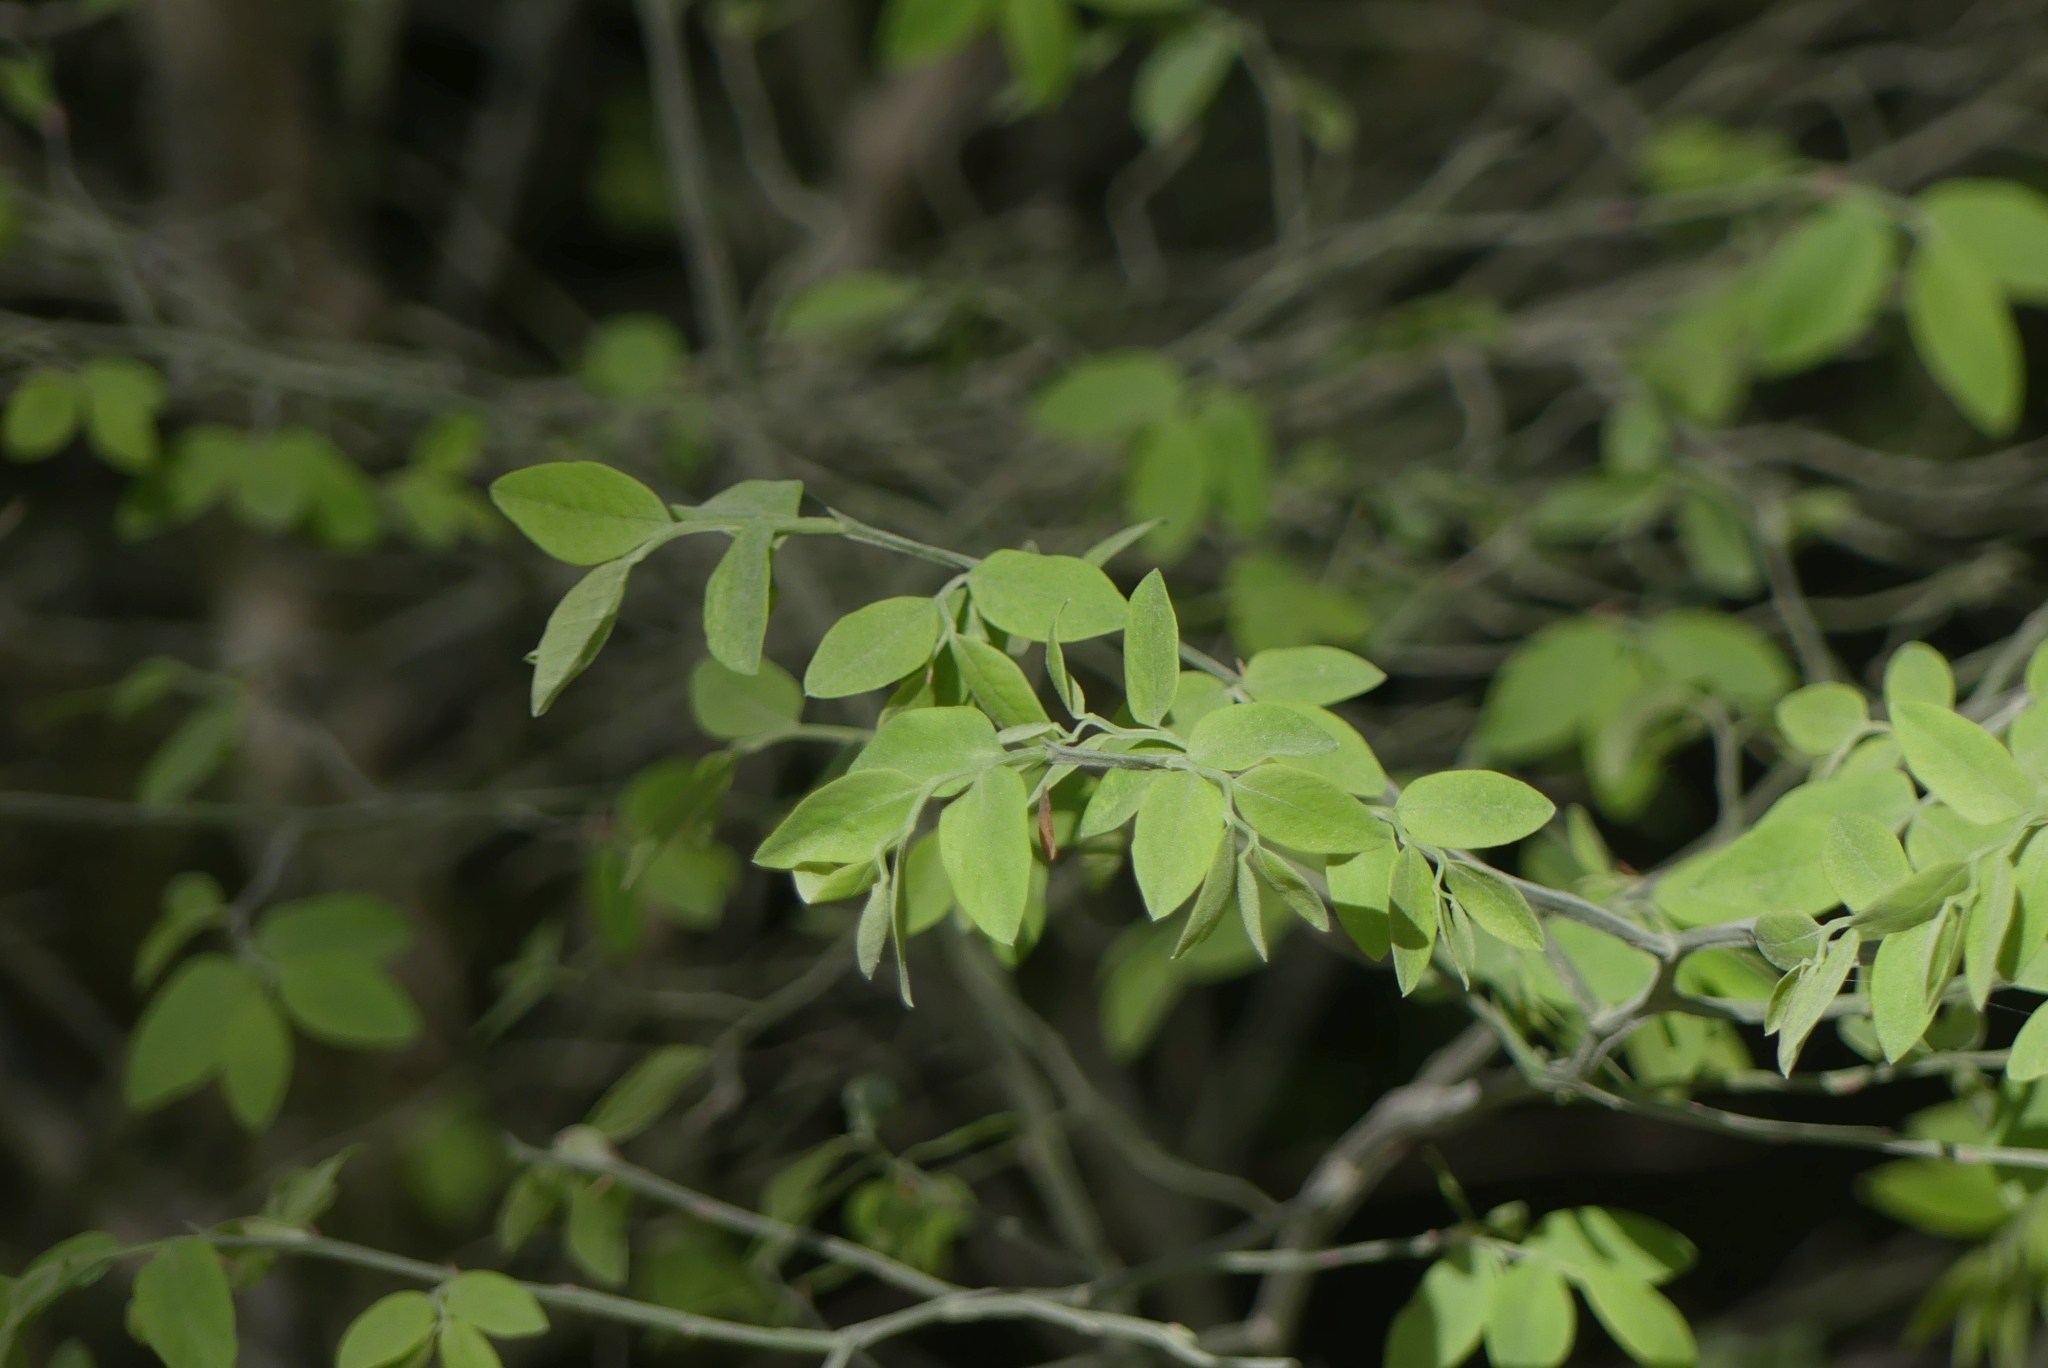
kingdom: Plantae
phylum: Tracheophyta
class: Magnoliopsida
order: Ericales
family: Ericaceae
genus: Vaccinium
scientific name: Vaccinium parvifolium
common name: Red-huckleberry
